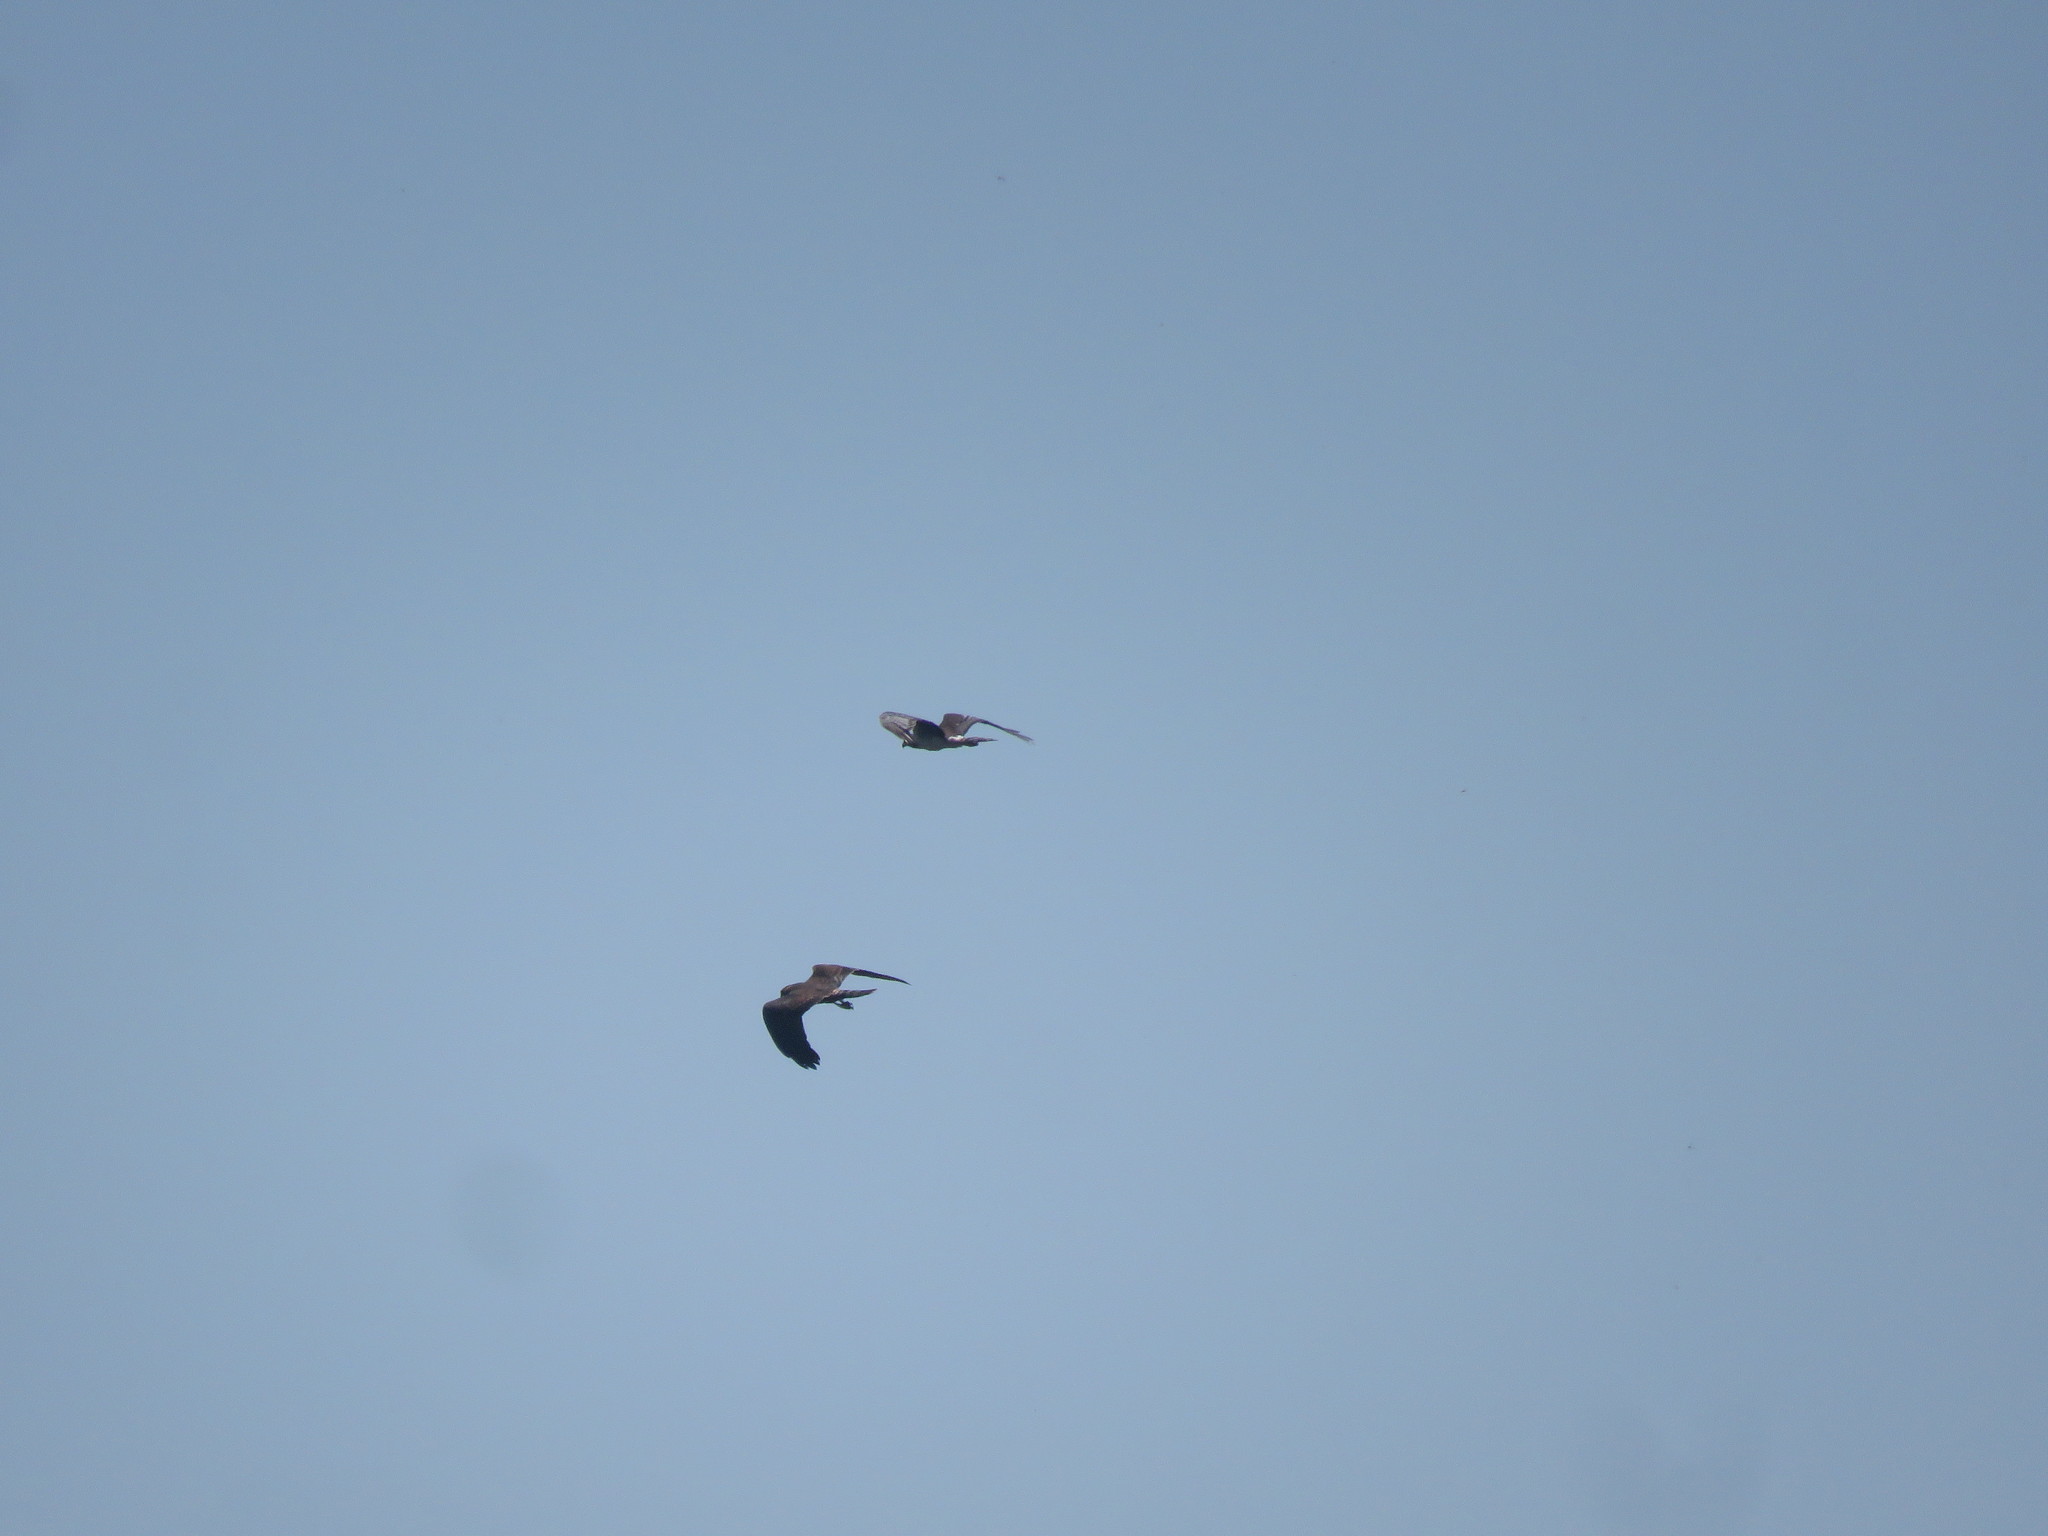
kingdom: Animalia
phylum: Chordata
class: Aves
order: Accipitriformes
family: Accipitridae
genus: Circus
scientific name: Circus buffoni
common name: Long-winged harrier
